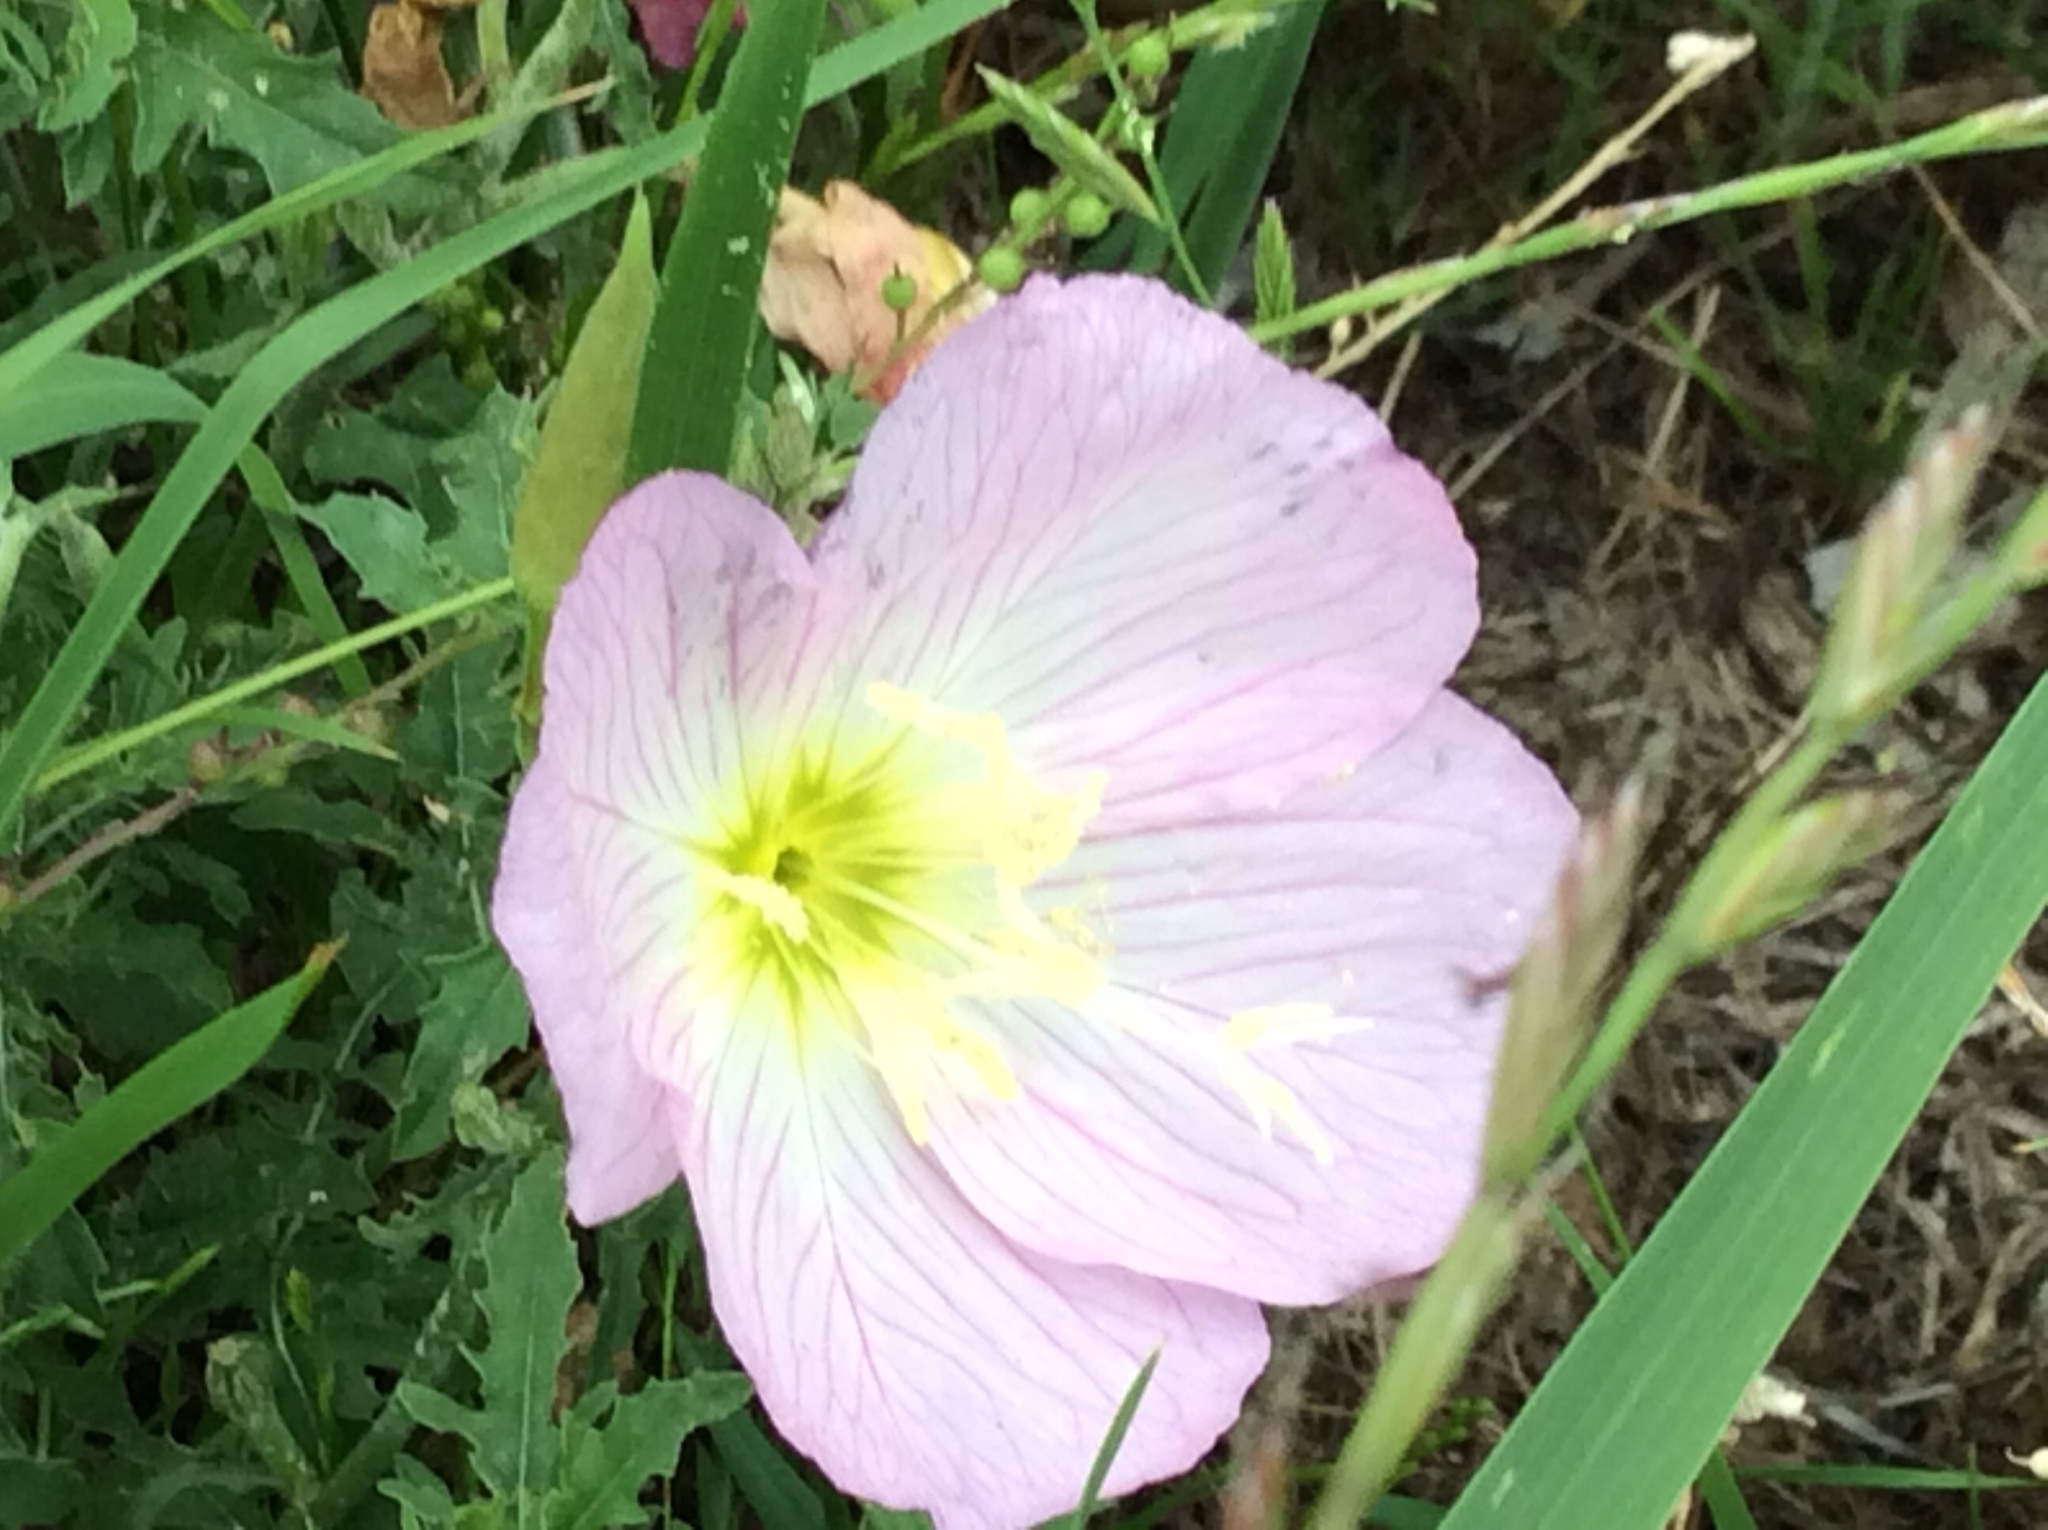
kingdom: Plantae
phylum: Tracheophyta
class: Magnoliopsida
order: Myrtales
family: Onagraceae
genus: Oenothera
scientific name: Oenothera speciosa
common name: White evening-primrose
